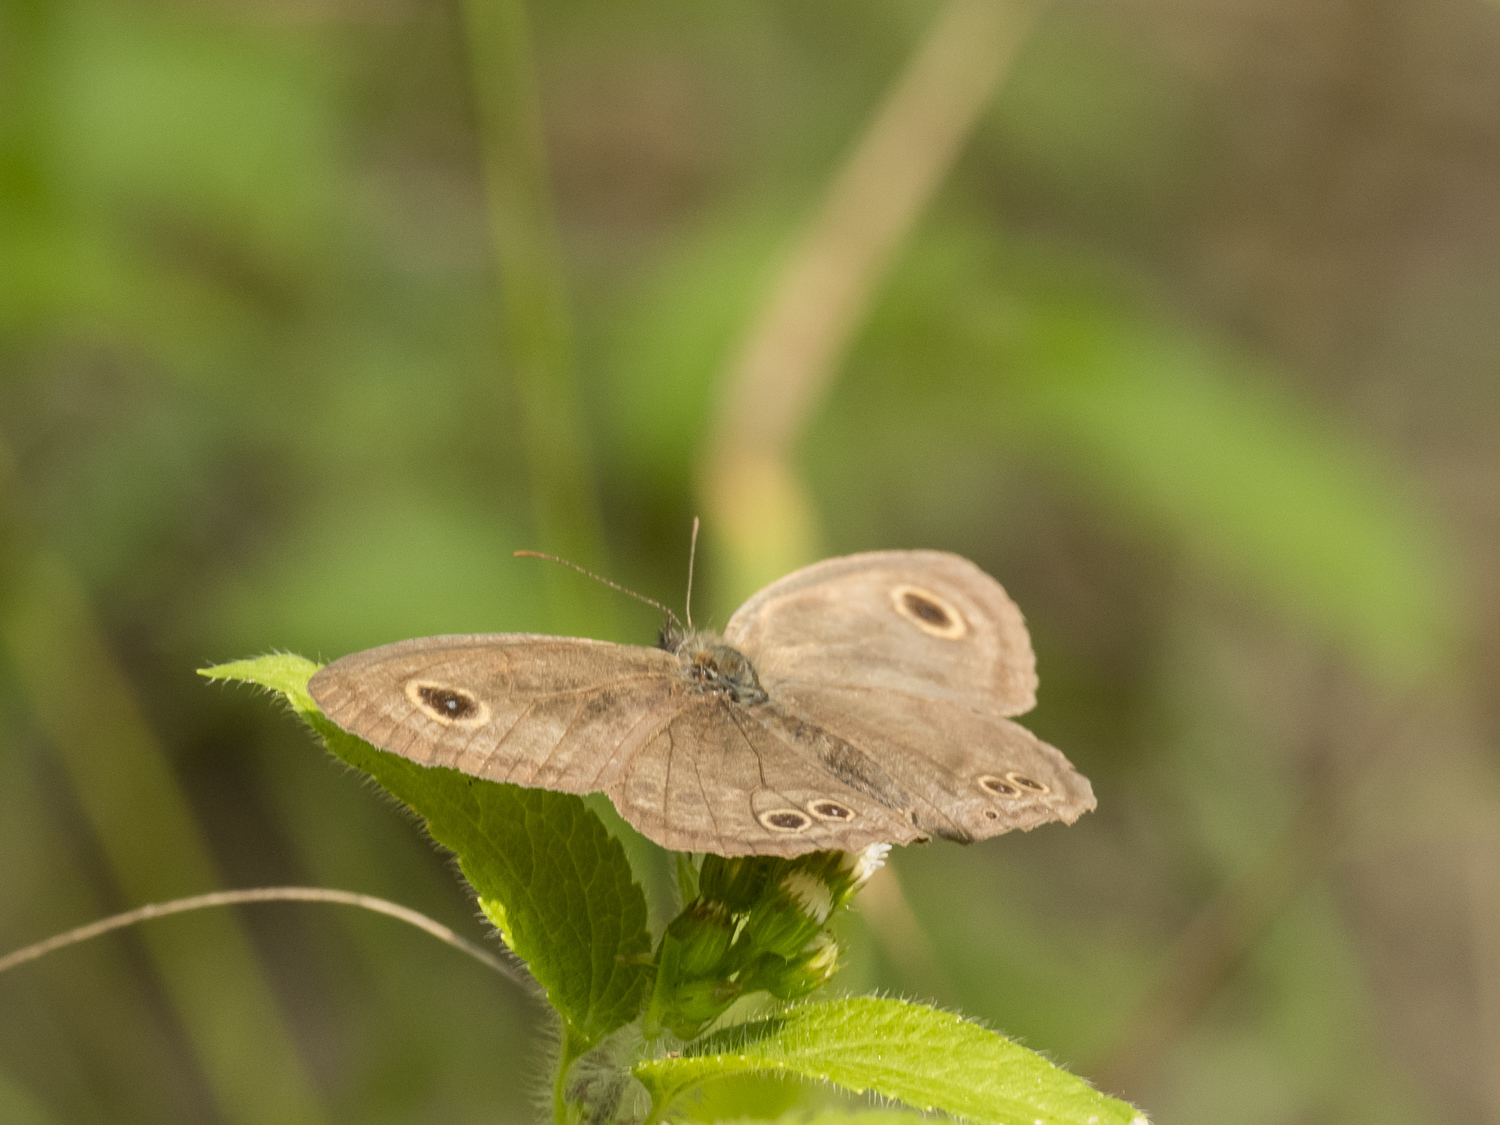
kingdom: Animalia
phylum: Arthropoda
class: Insecta
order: Lepidoptera
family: Nymphalidae
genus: Ypthima
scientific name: Ypthima huebneri
